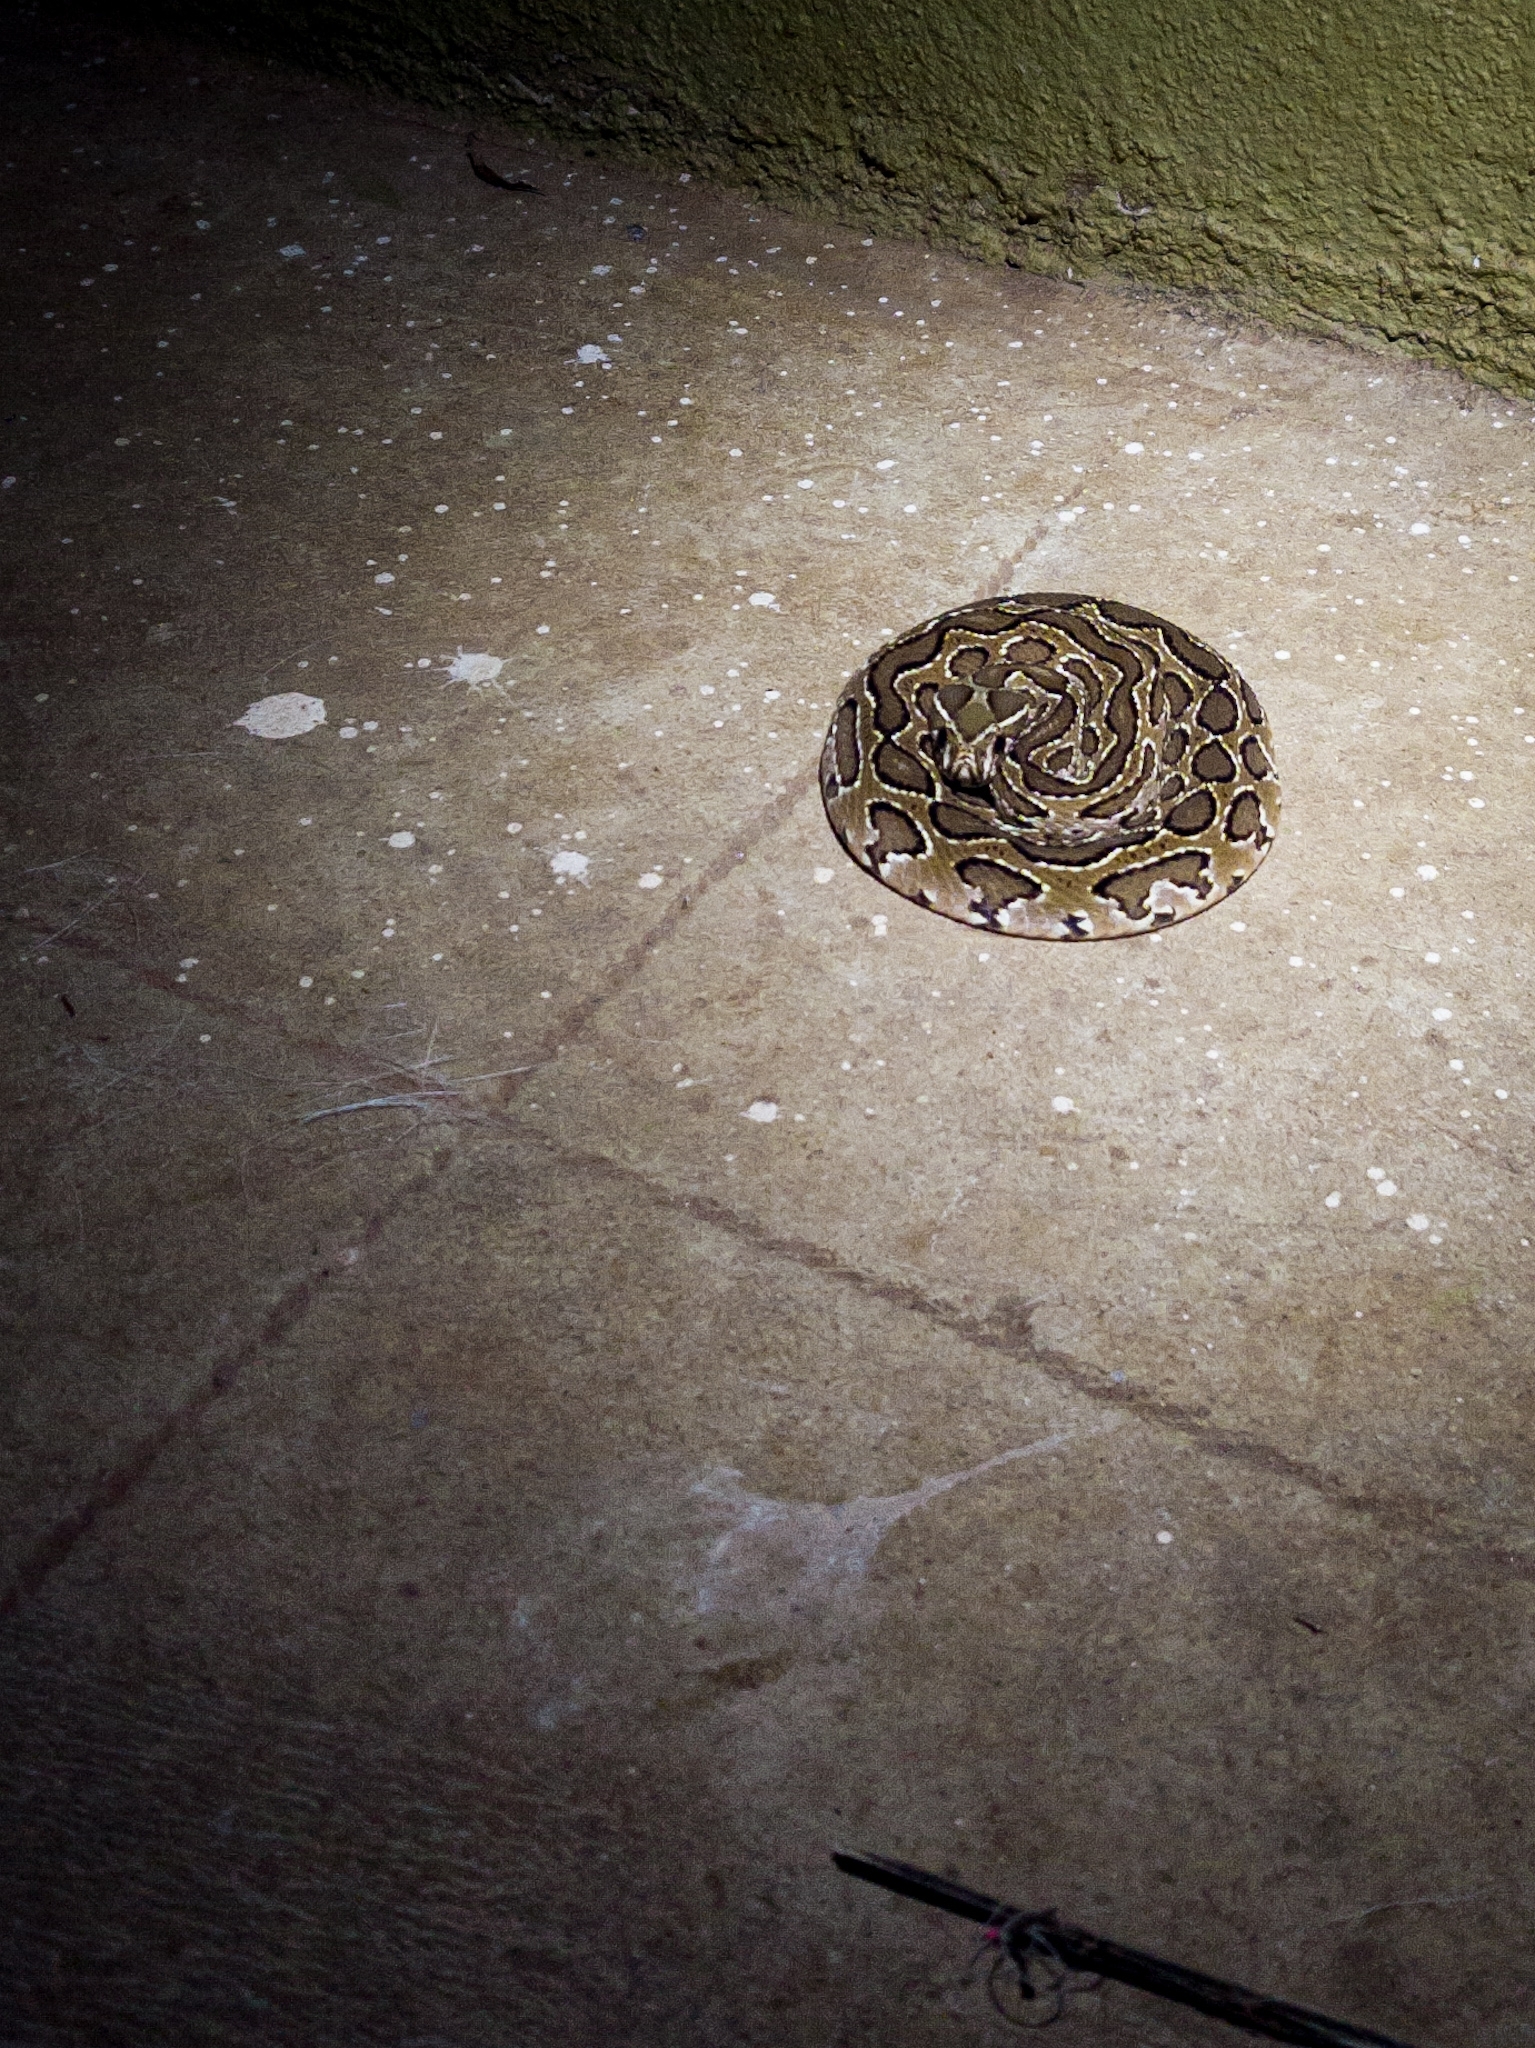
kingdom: Animalia
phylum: Chordata
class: Squamata
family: Viperidae
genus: Daboia
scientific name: Daboia russelii
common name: Western russel’s viper
